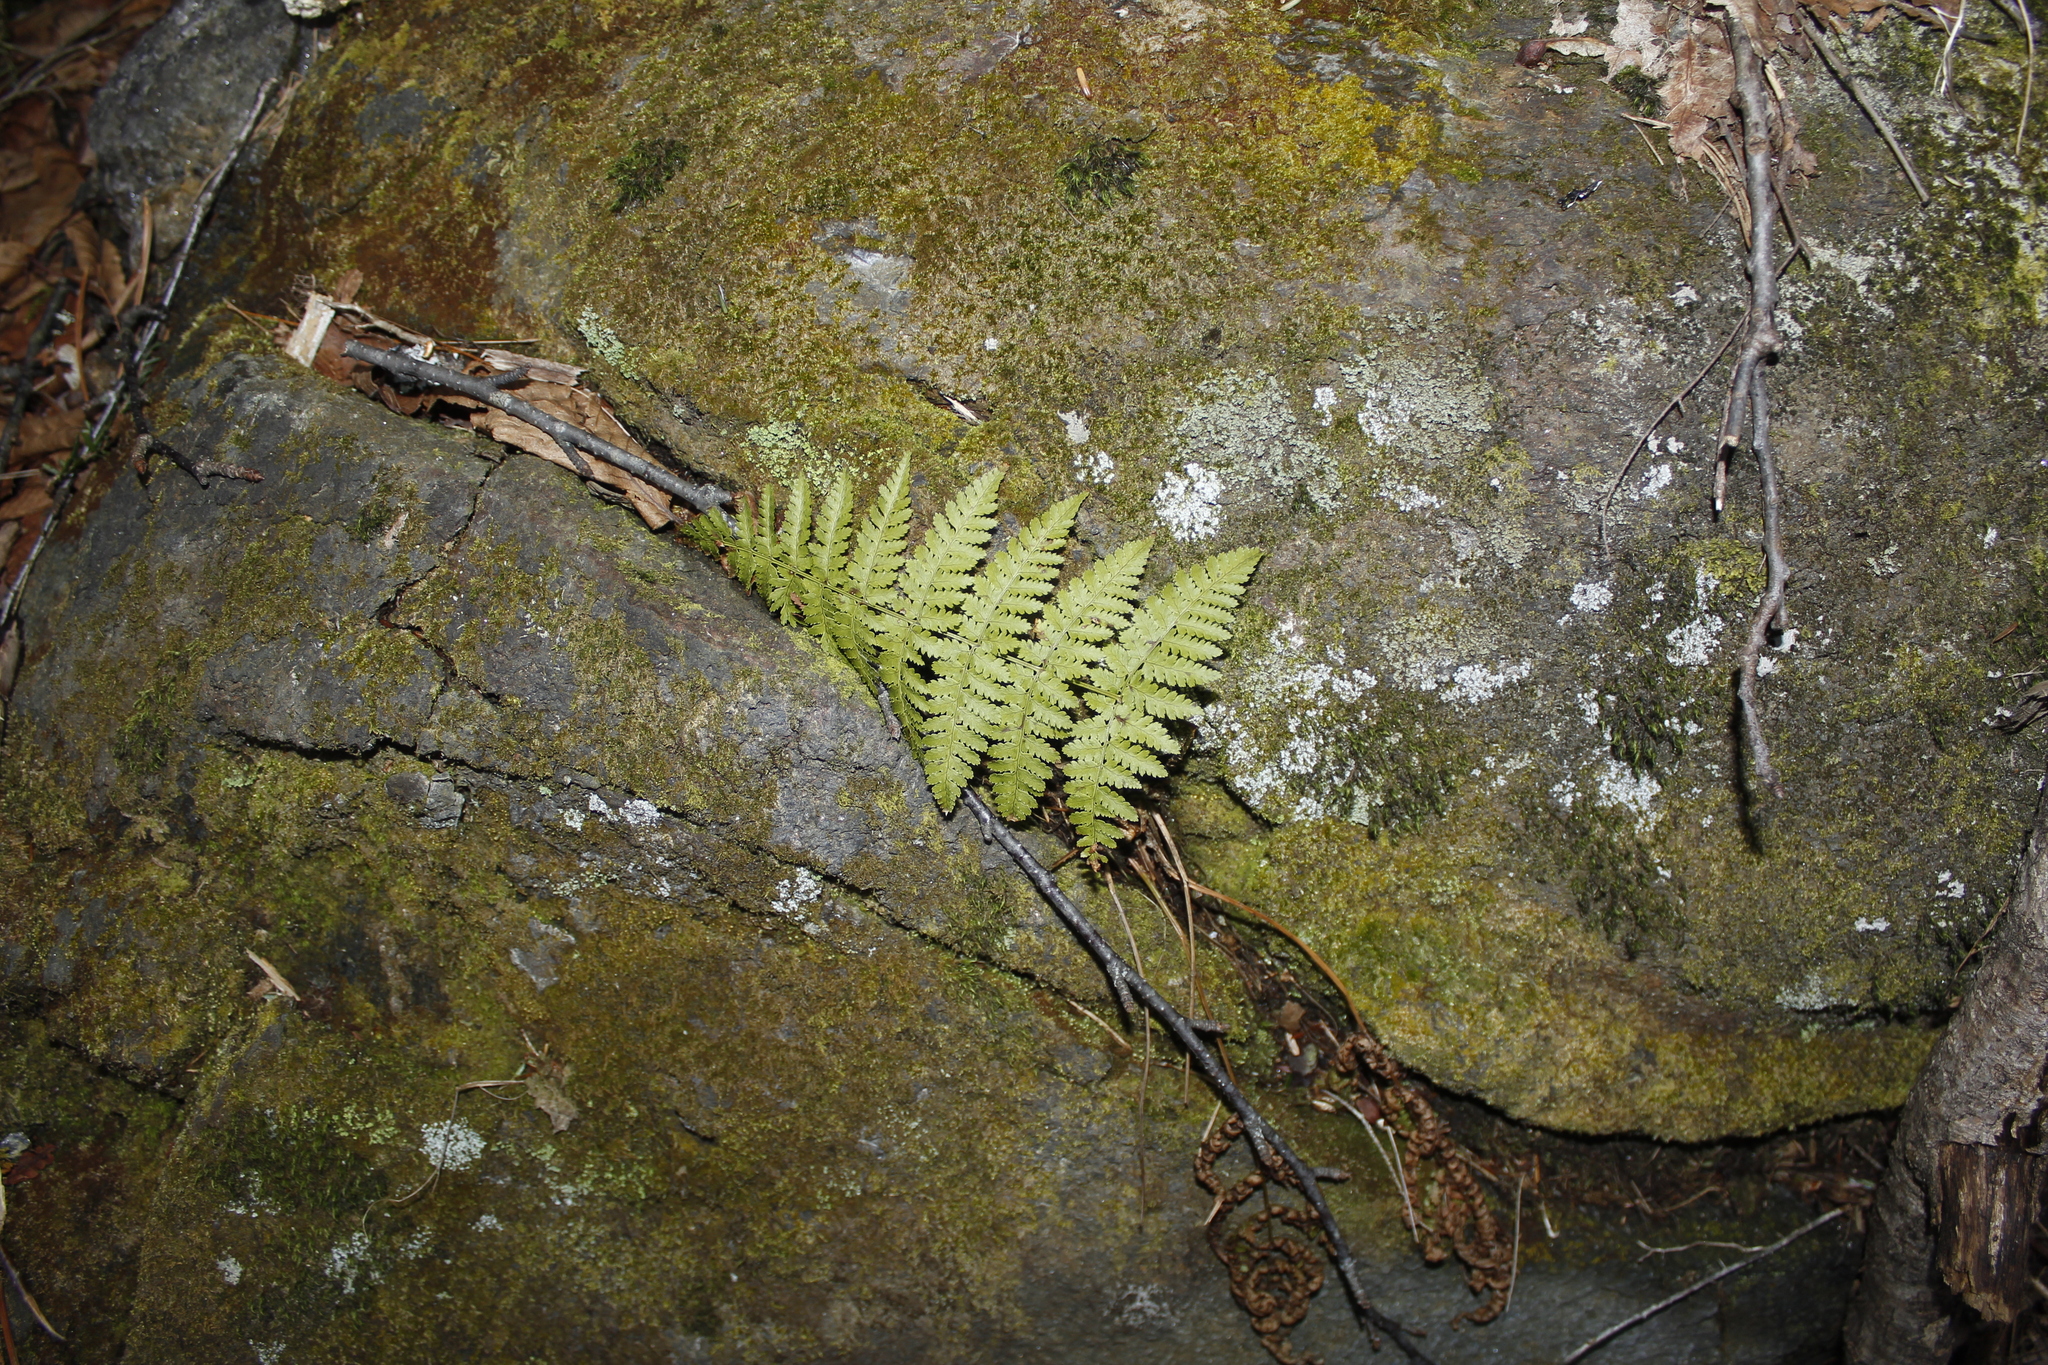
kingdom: Plantae
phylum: Tracheophyta
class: Polypodiopsida
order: Polypodiales
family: Dryopteridaceae
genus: Dryopteris
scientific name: Dryopteris intermedia
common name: Evergreen wood fern
